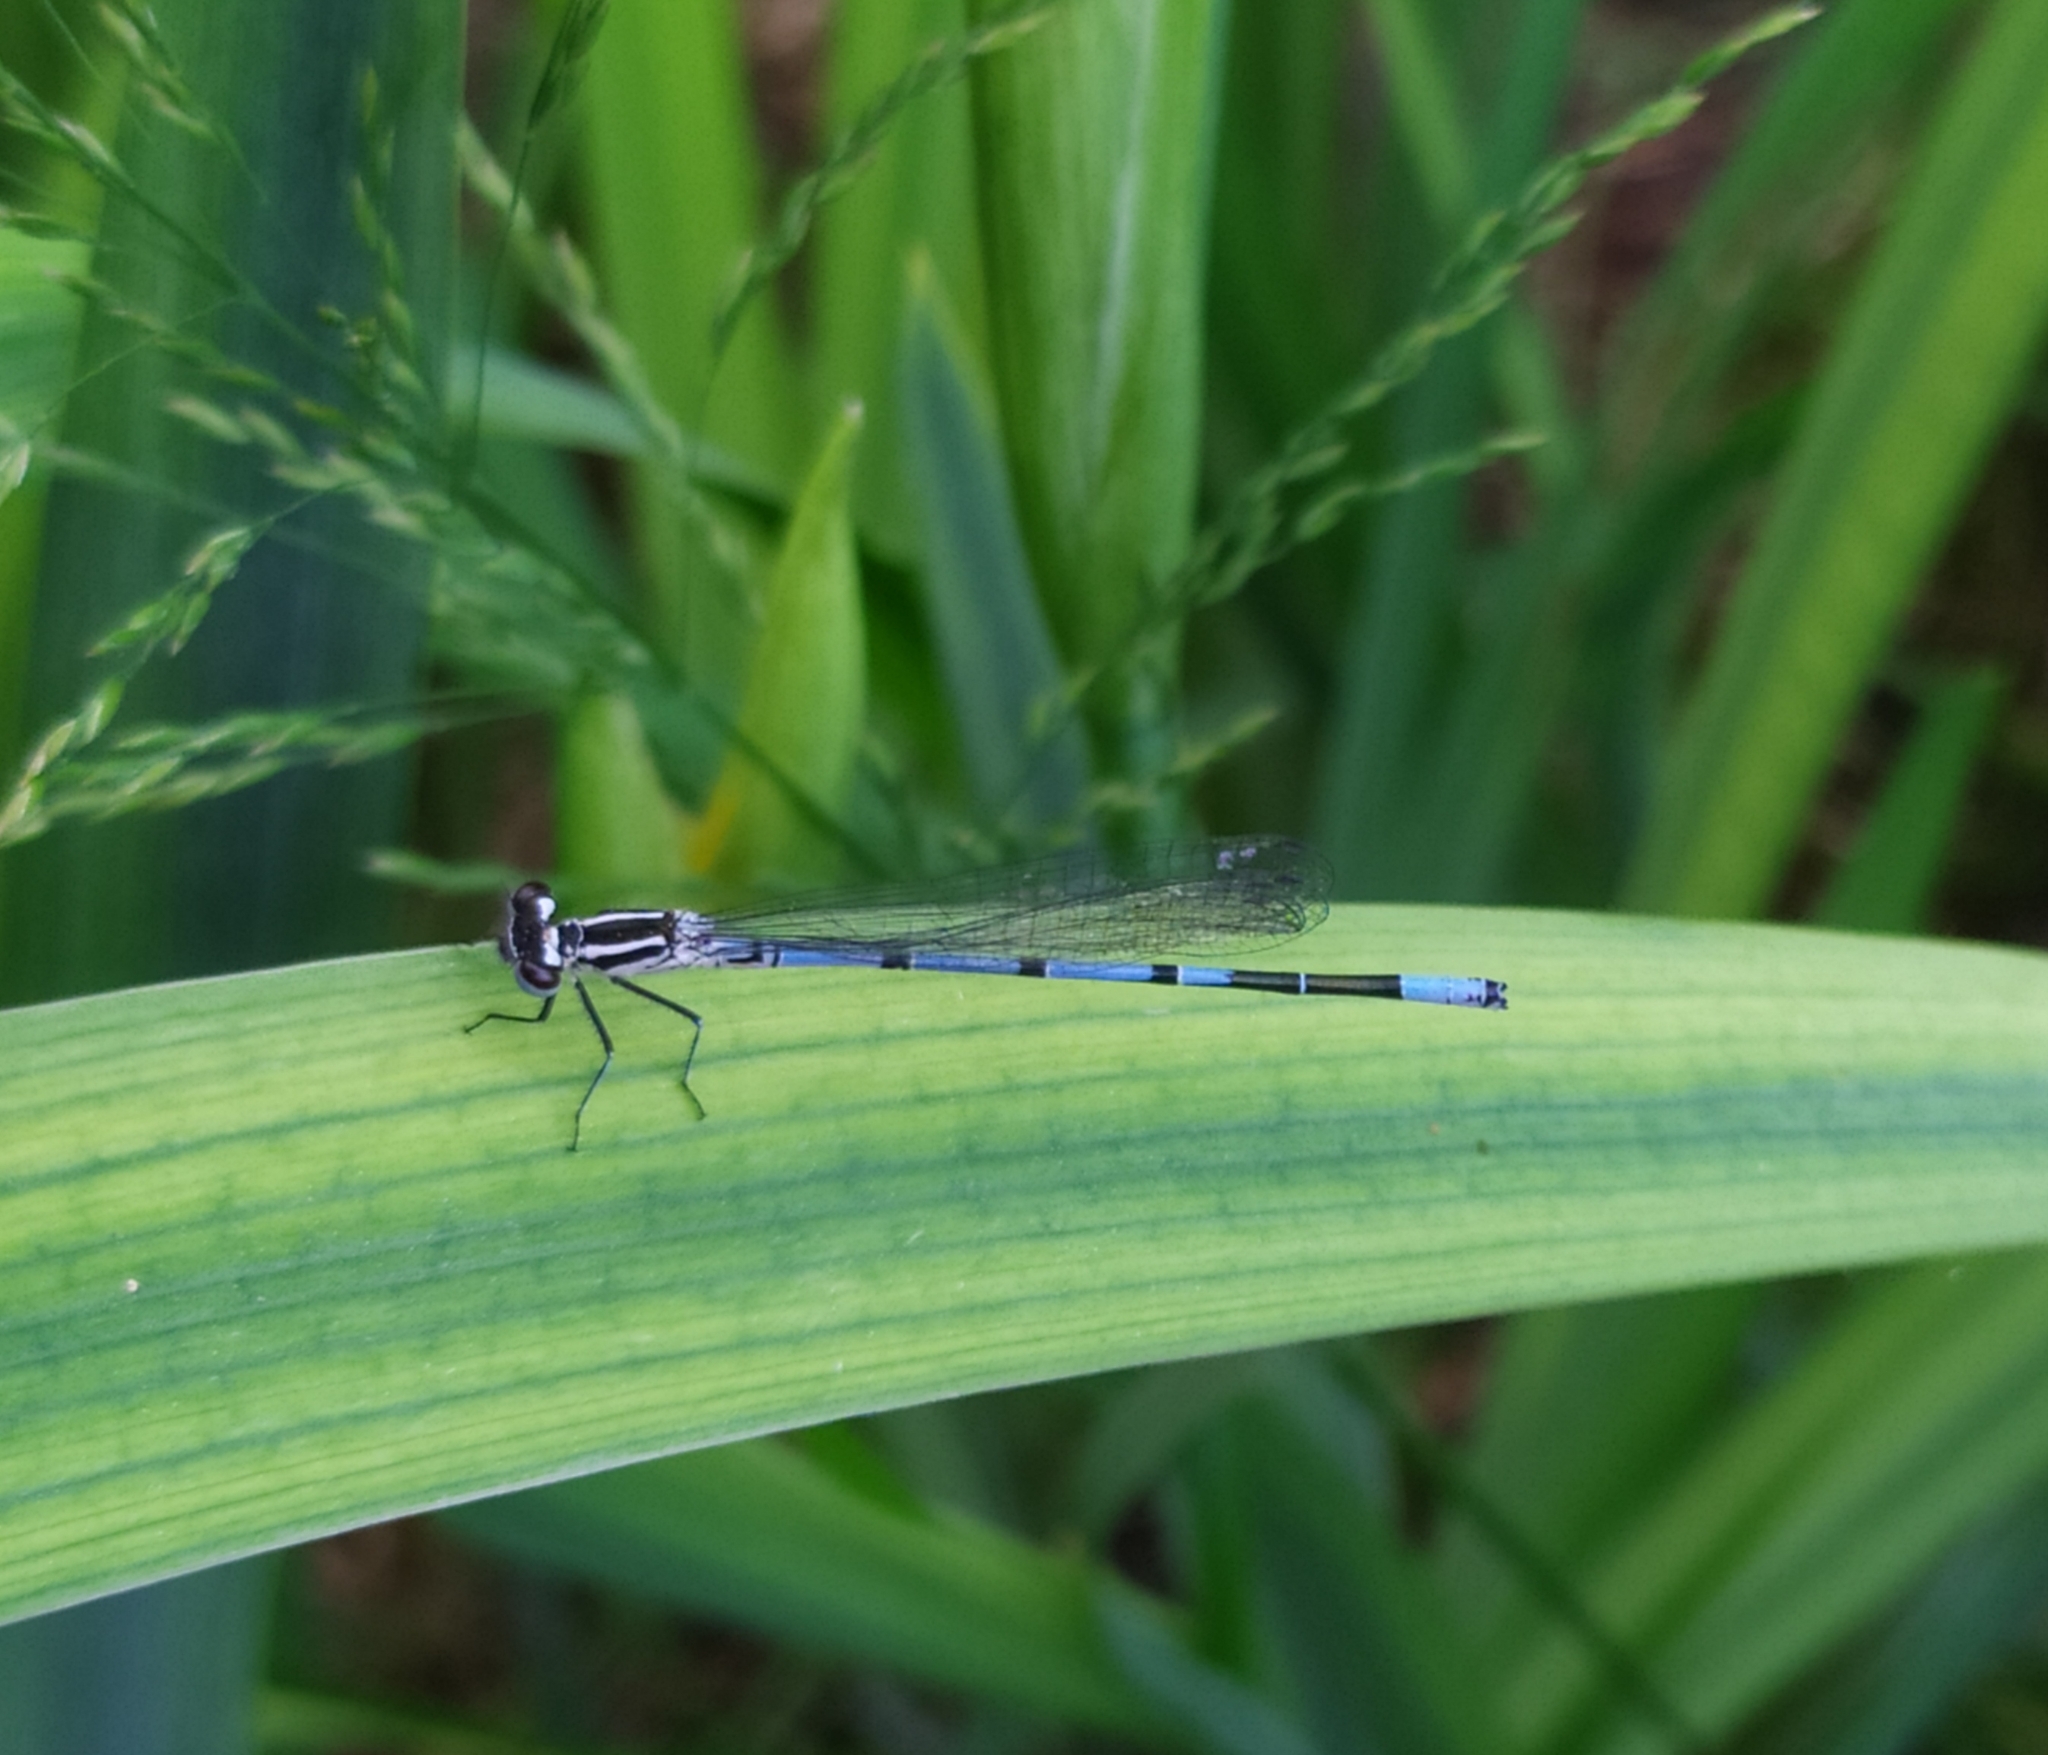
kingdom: Animalia
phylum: Arthropoda
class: Insecta
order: Odonata
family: Coenagrionidae
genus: Coenagrion
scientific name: Coenagrion puella
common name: Azure damselfly
